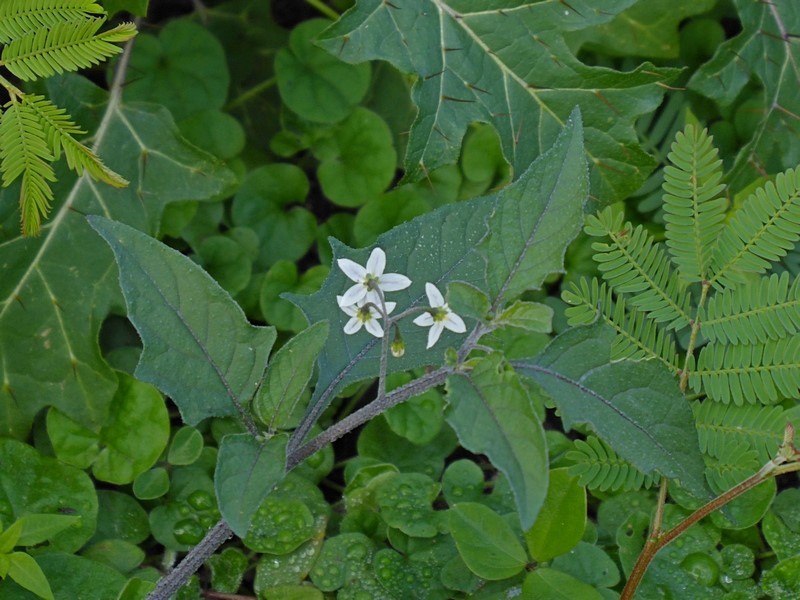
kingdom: Plantae
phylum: Tracheophyta
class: Magnoliopsida
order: Solanales
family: Solanaceae
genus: Solanum
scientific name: Solanum opacum
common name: Green-berry nightshade
